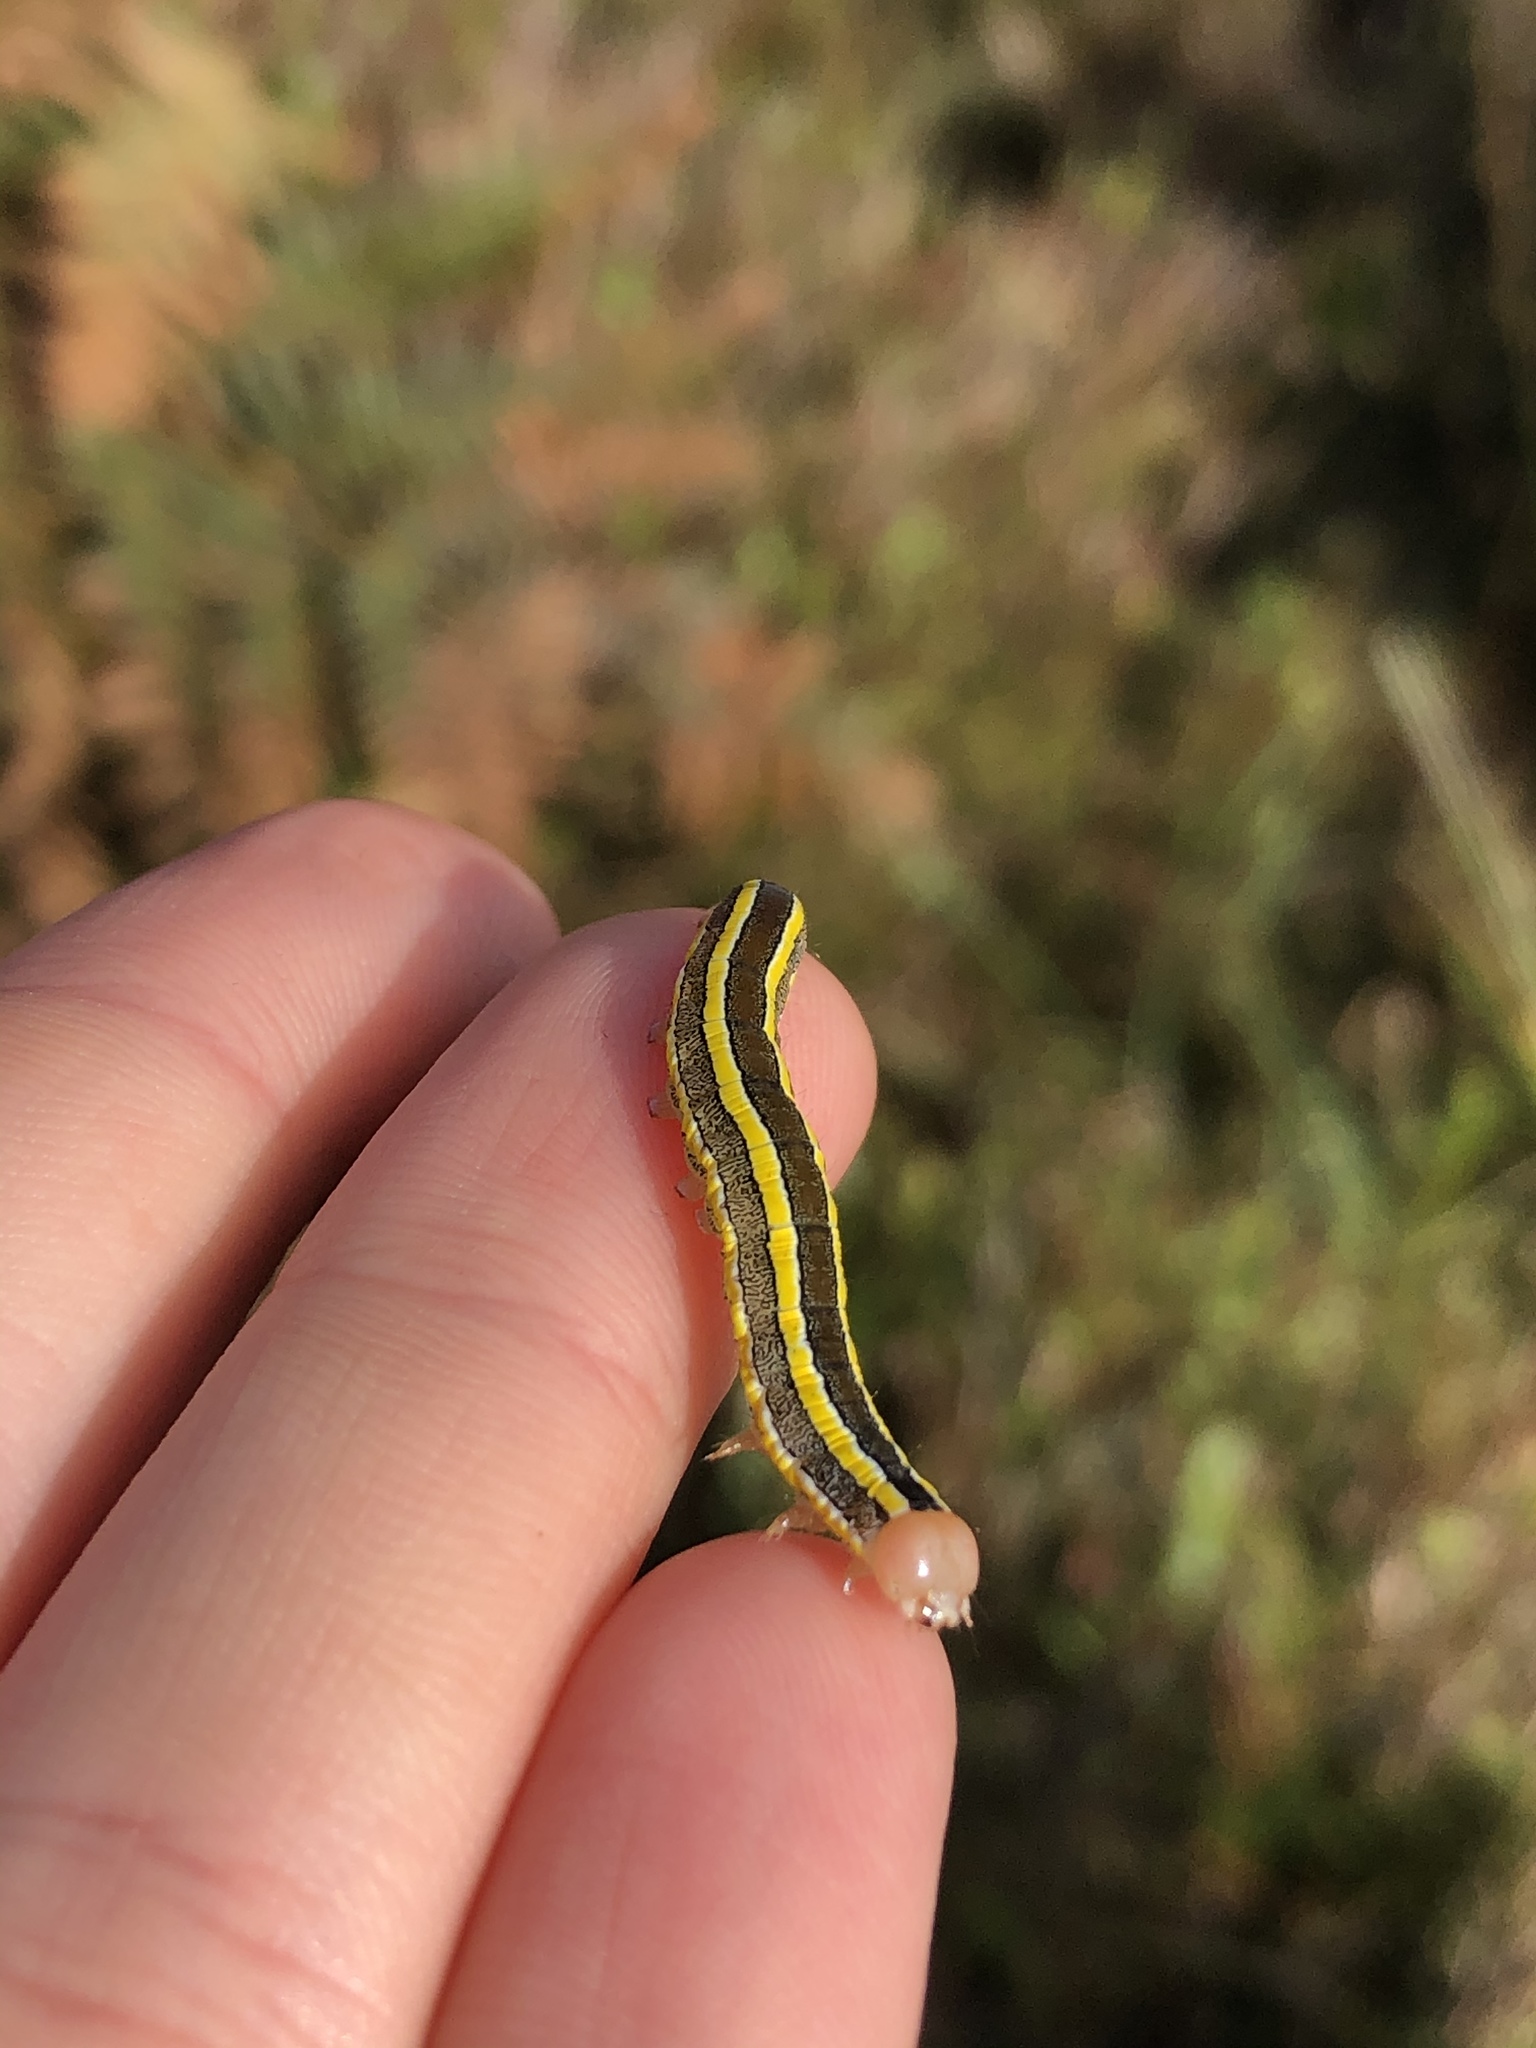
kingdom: Animalia
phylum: Arthropoda
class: Insecta
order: Lepidoptera
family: Noctuidae
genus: Ceramica
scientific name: Ceramica pisi
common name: Broom moth
